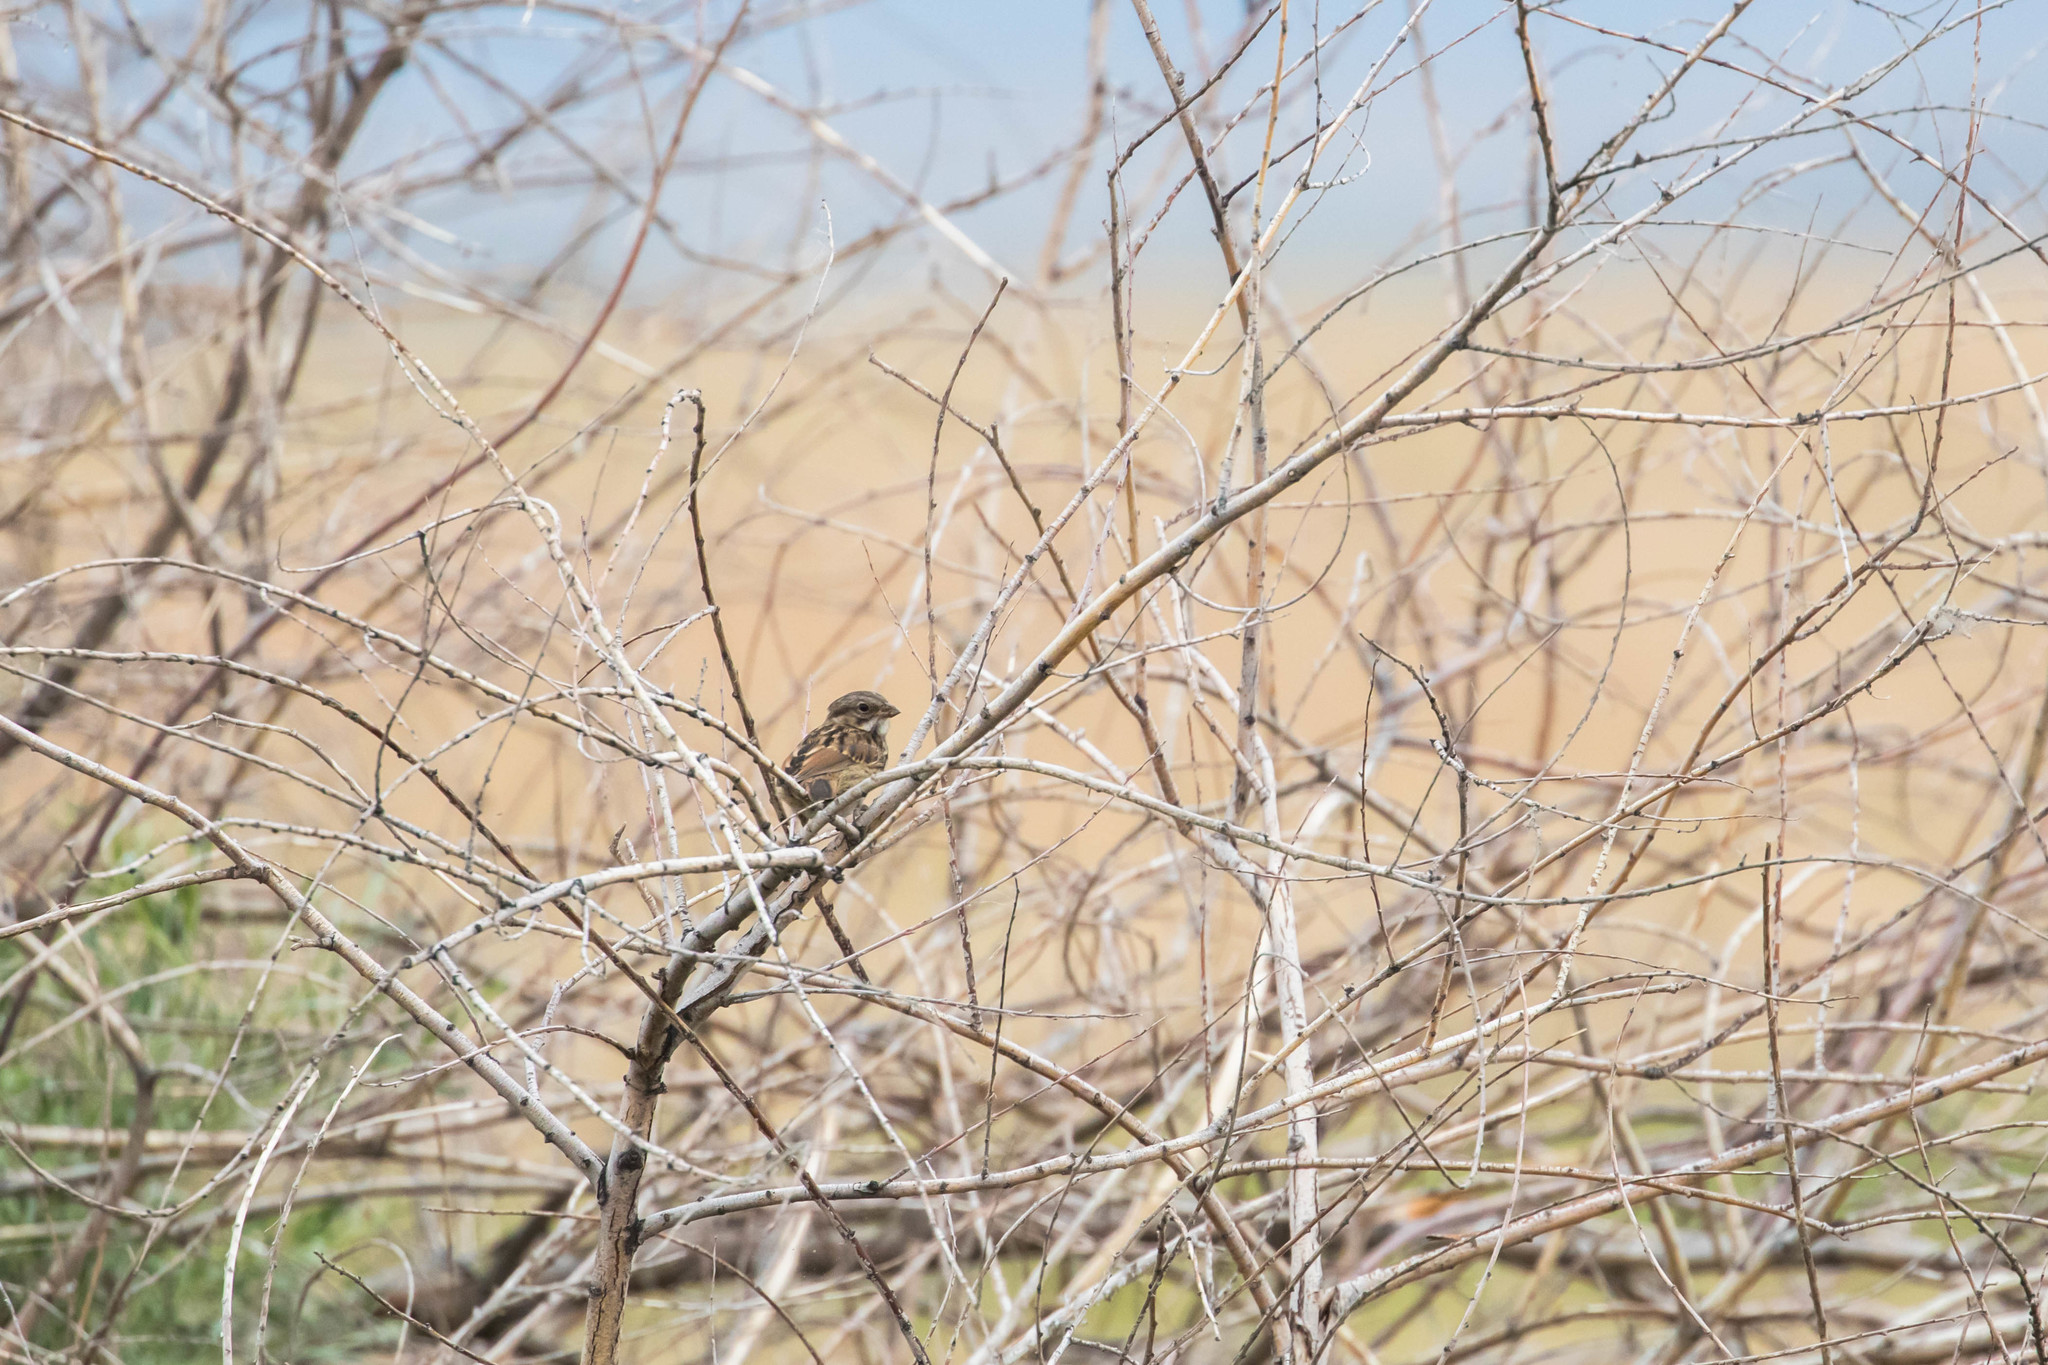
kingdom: Animalia
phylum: Chordata
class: Aves
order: Passeriformes
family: Passerellidae
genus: Melospiza
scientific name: Melospiza melodia
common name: Song sparrow
